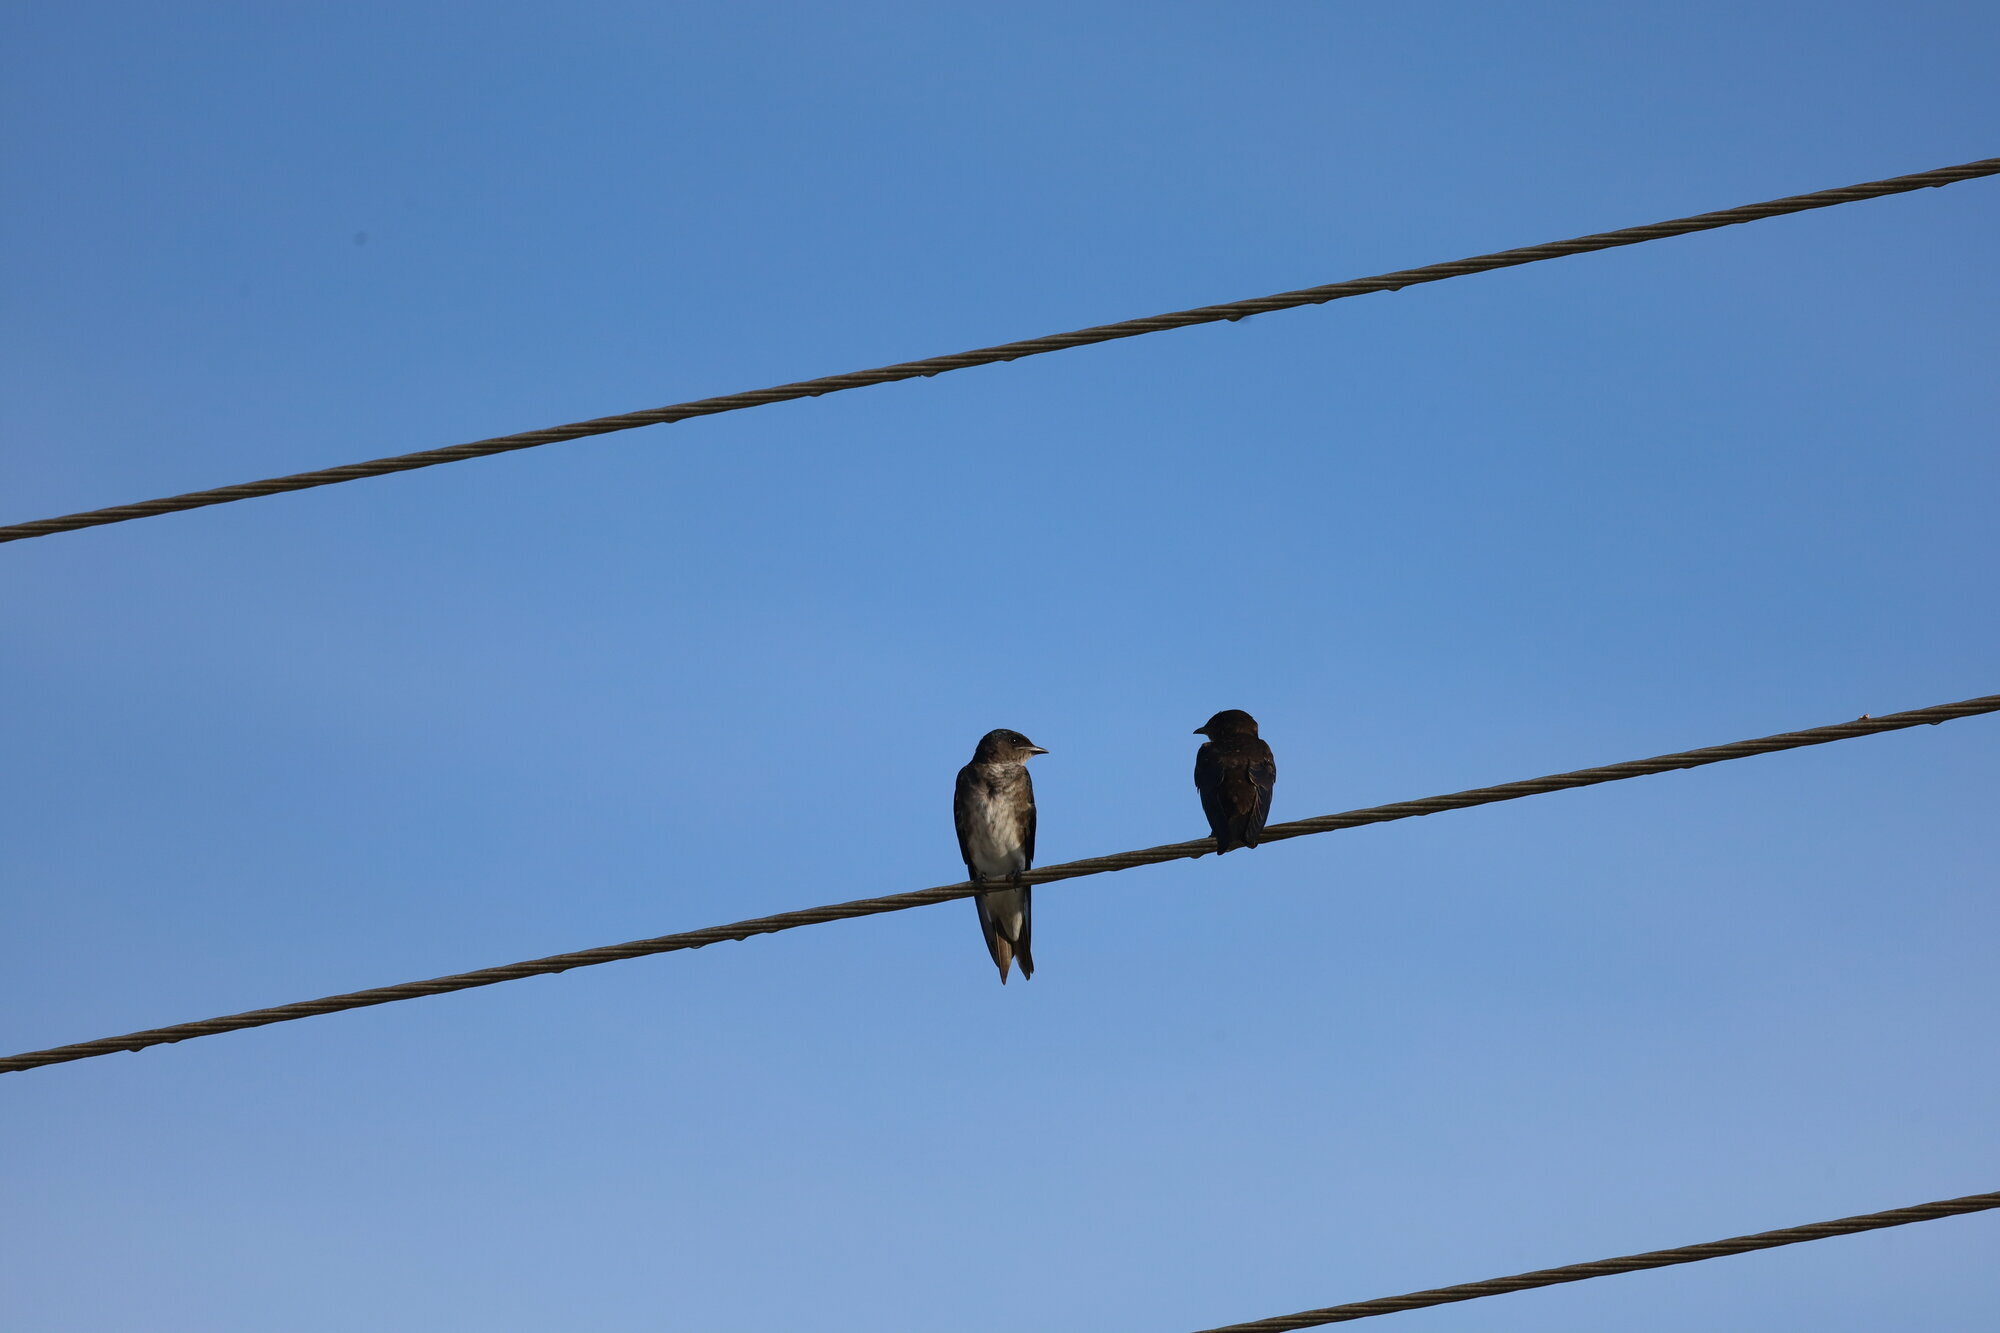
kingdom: Animalia
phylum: Chordata
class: Aves
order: Passeriformes
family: Hirundinidae
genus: Progne
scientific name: Progne chalybea
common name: Grey-breasted martin
